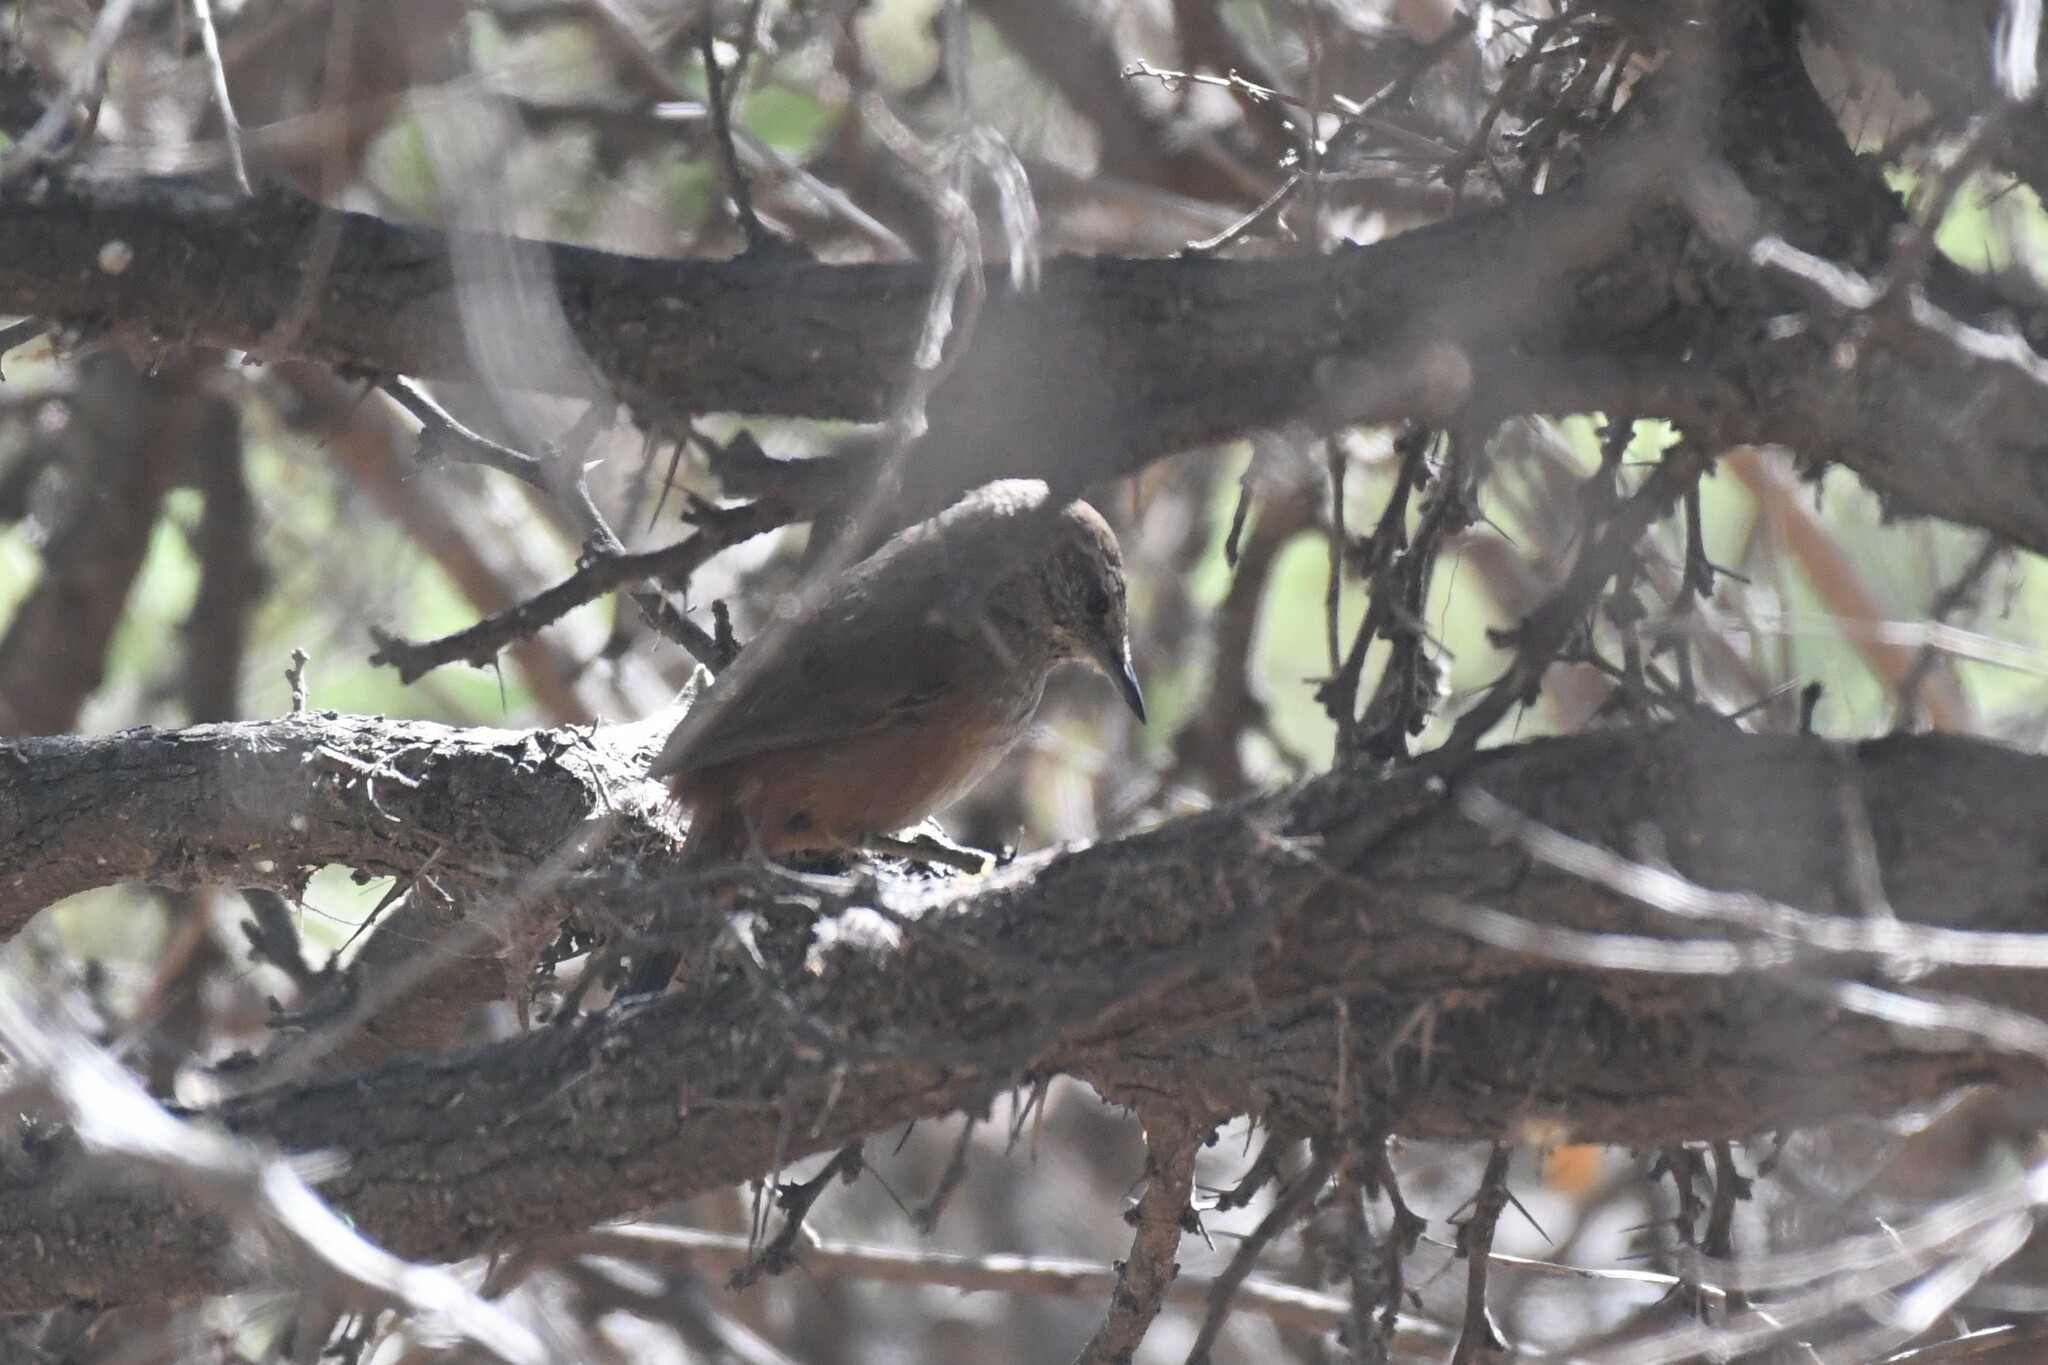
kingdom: Animalia
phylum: Chordata
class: Aves
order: Passeriformes
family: Furnariidae
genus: Asthenes
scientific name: Asthenes humicola
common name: Dusky-tailed canastero
